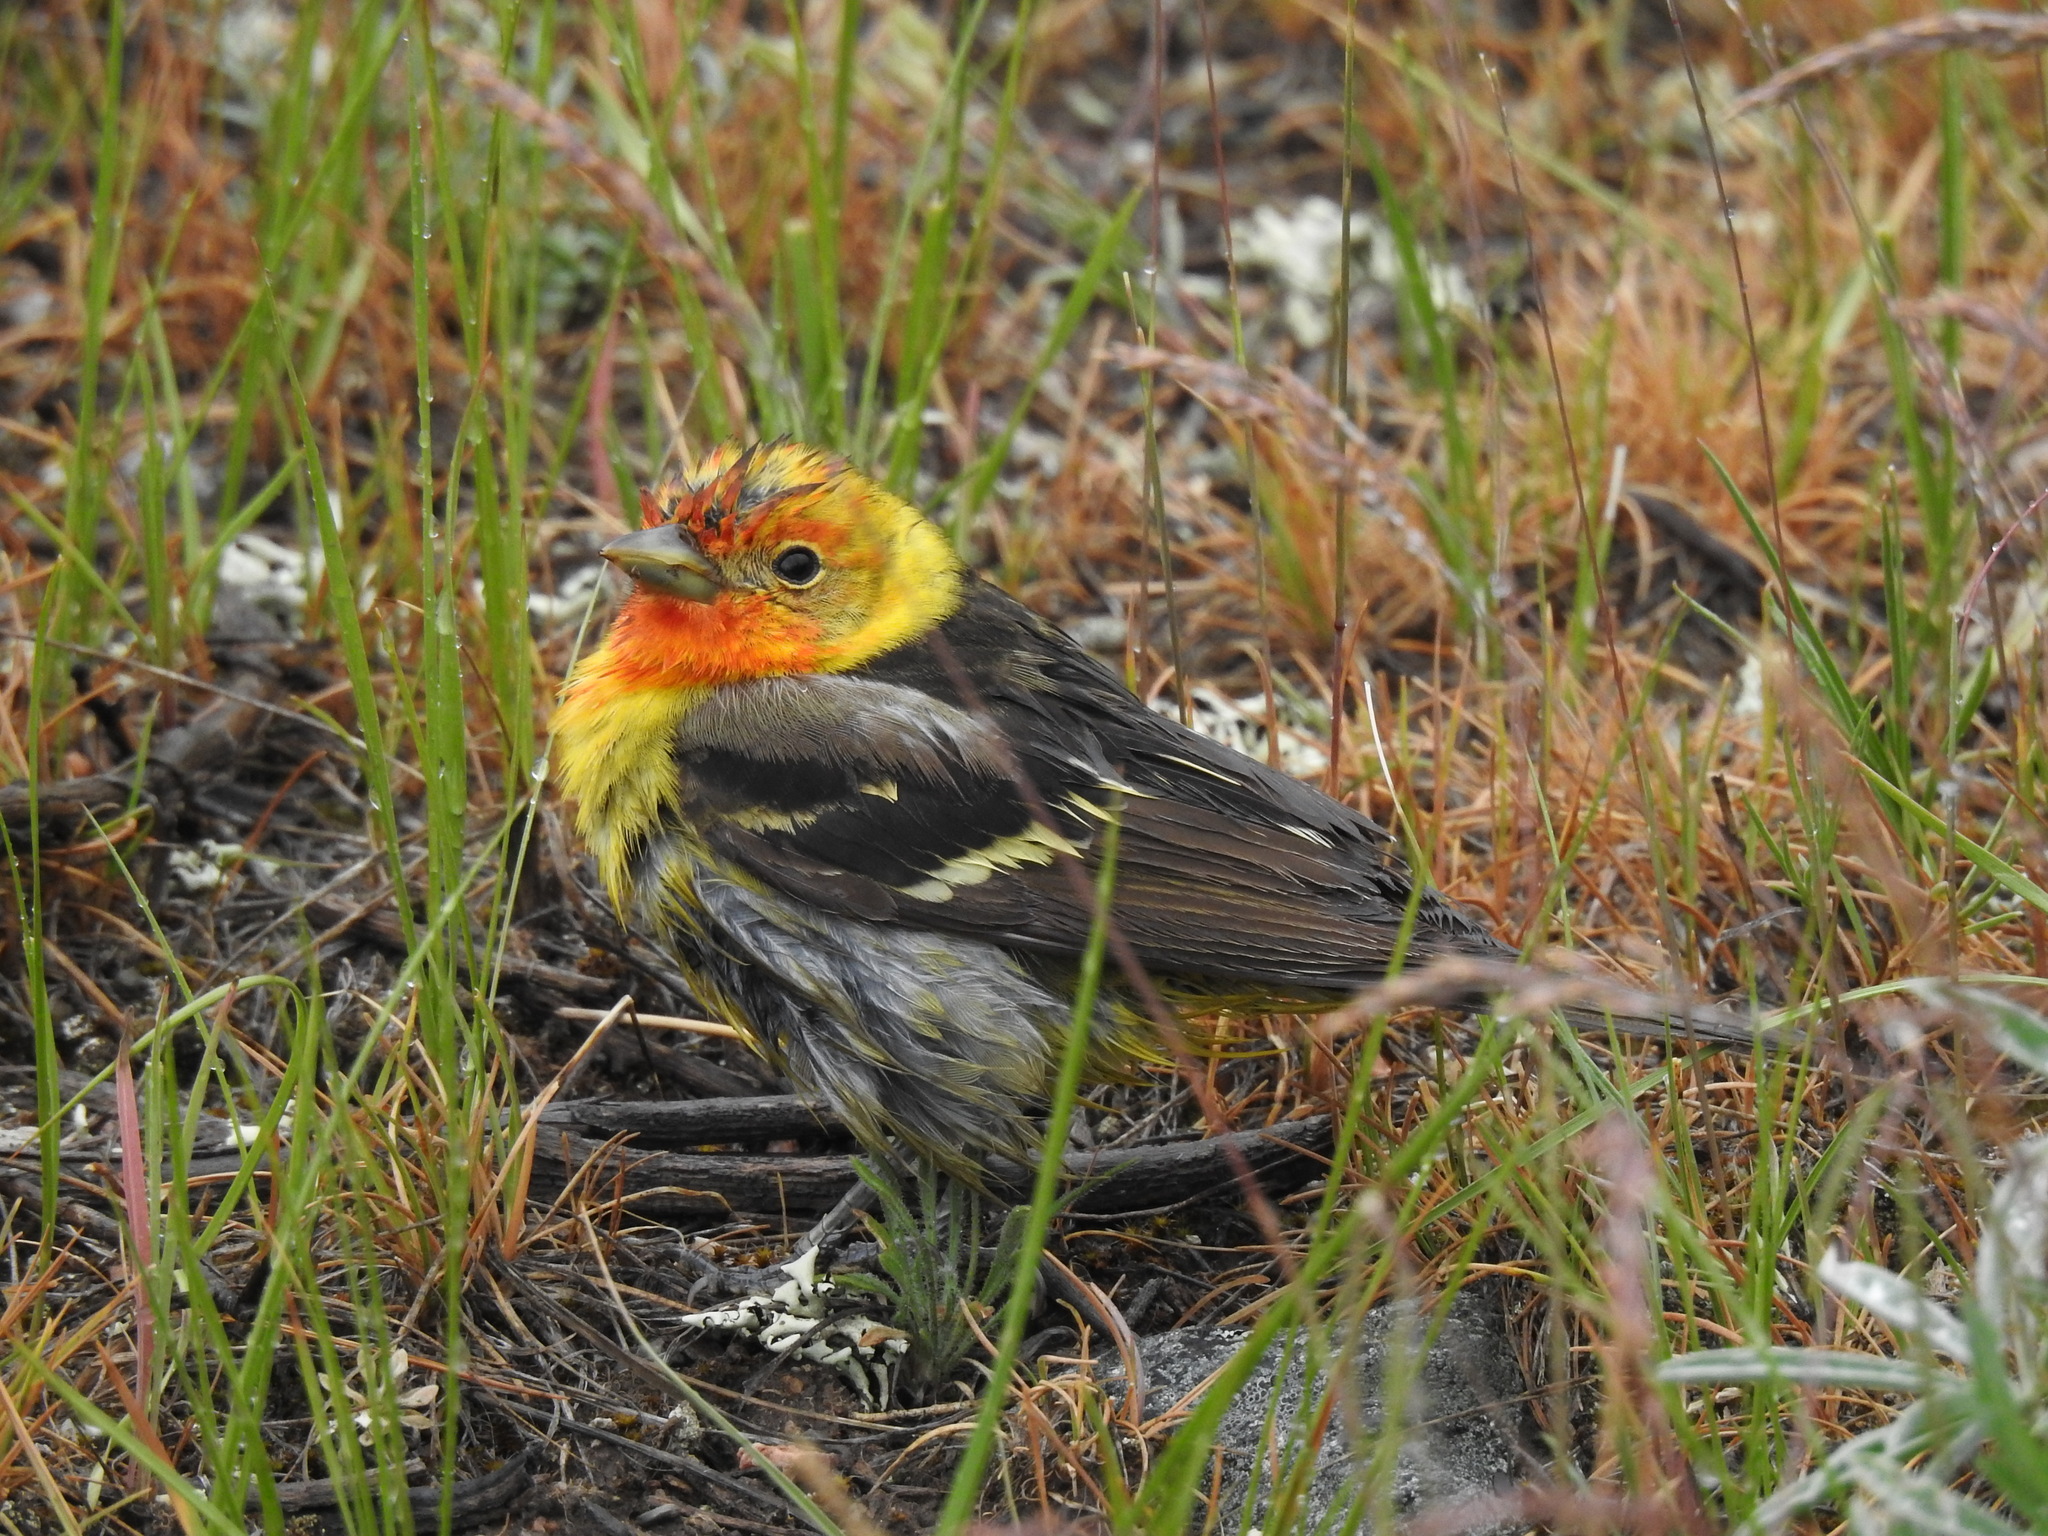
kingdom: Animalia
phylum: Chordata
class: Aves
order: Passeriformes
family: Cardinalidae
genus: Piranga
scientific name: Piranga ludoviciana
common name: Western tanager
